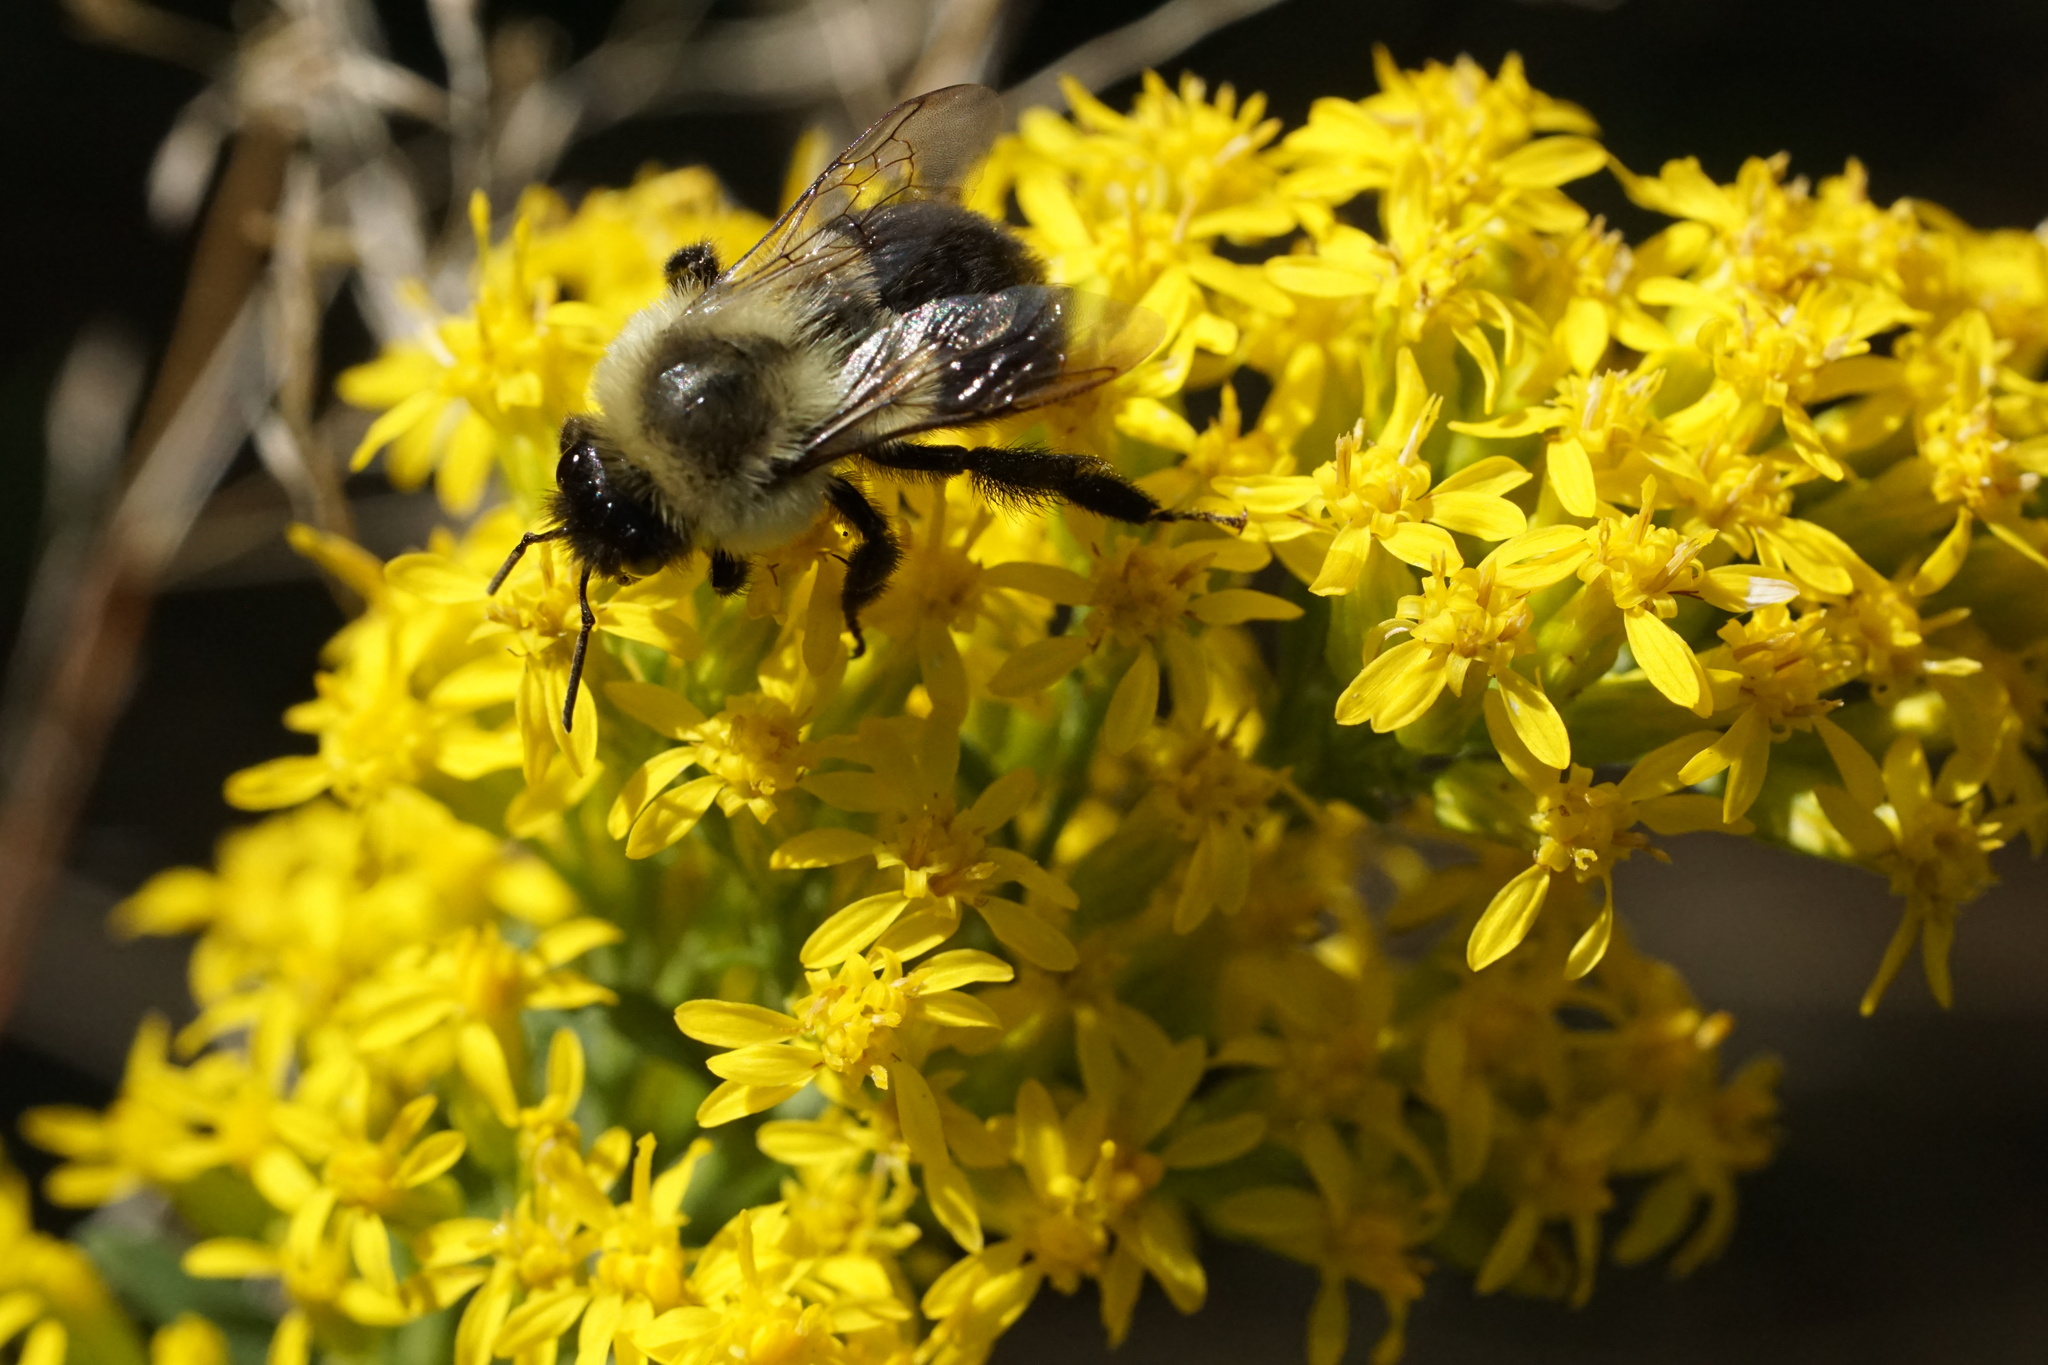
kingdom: Animalia
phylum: Arthropoda
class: Insecta
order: Hymenoptera
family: Apidae
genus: Bombus
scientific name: Bombus impatiens
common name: Common eastern bumble bee
